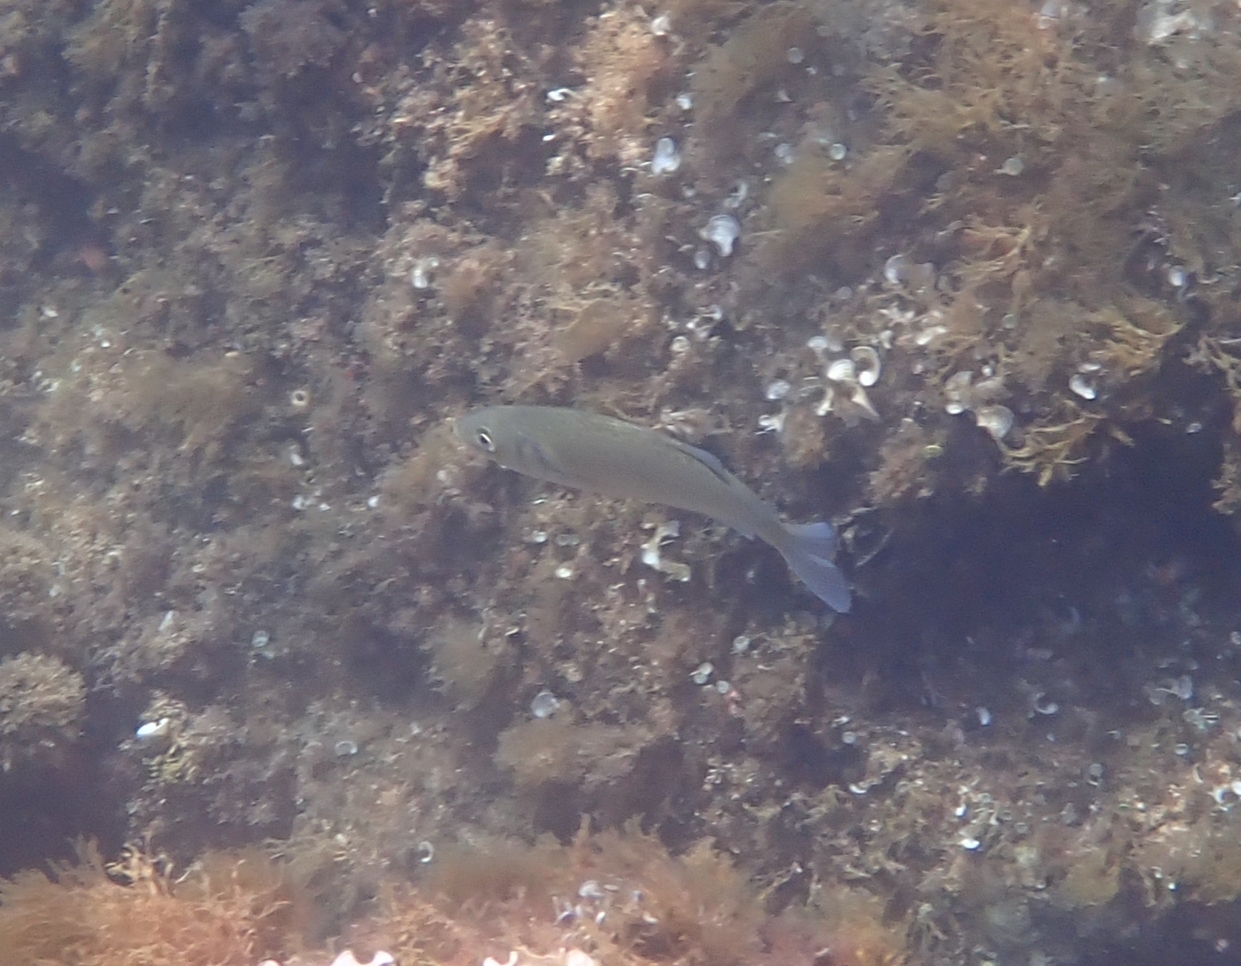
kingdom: Animalia
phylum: Chordata
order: Perciformes
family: Moronidae
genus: Dicentrarchus
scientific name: Dicentrarchus labrax
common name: European seabass
